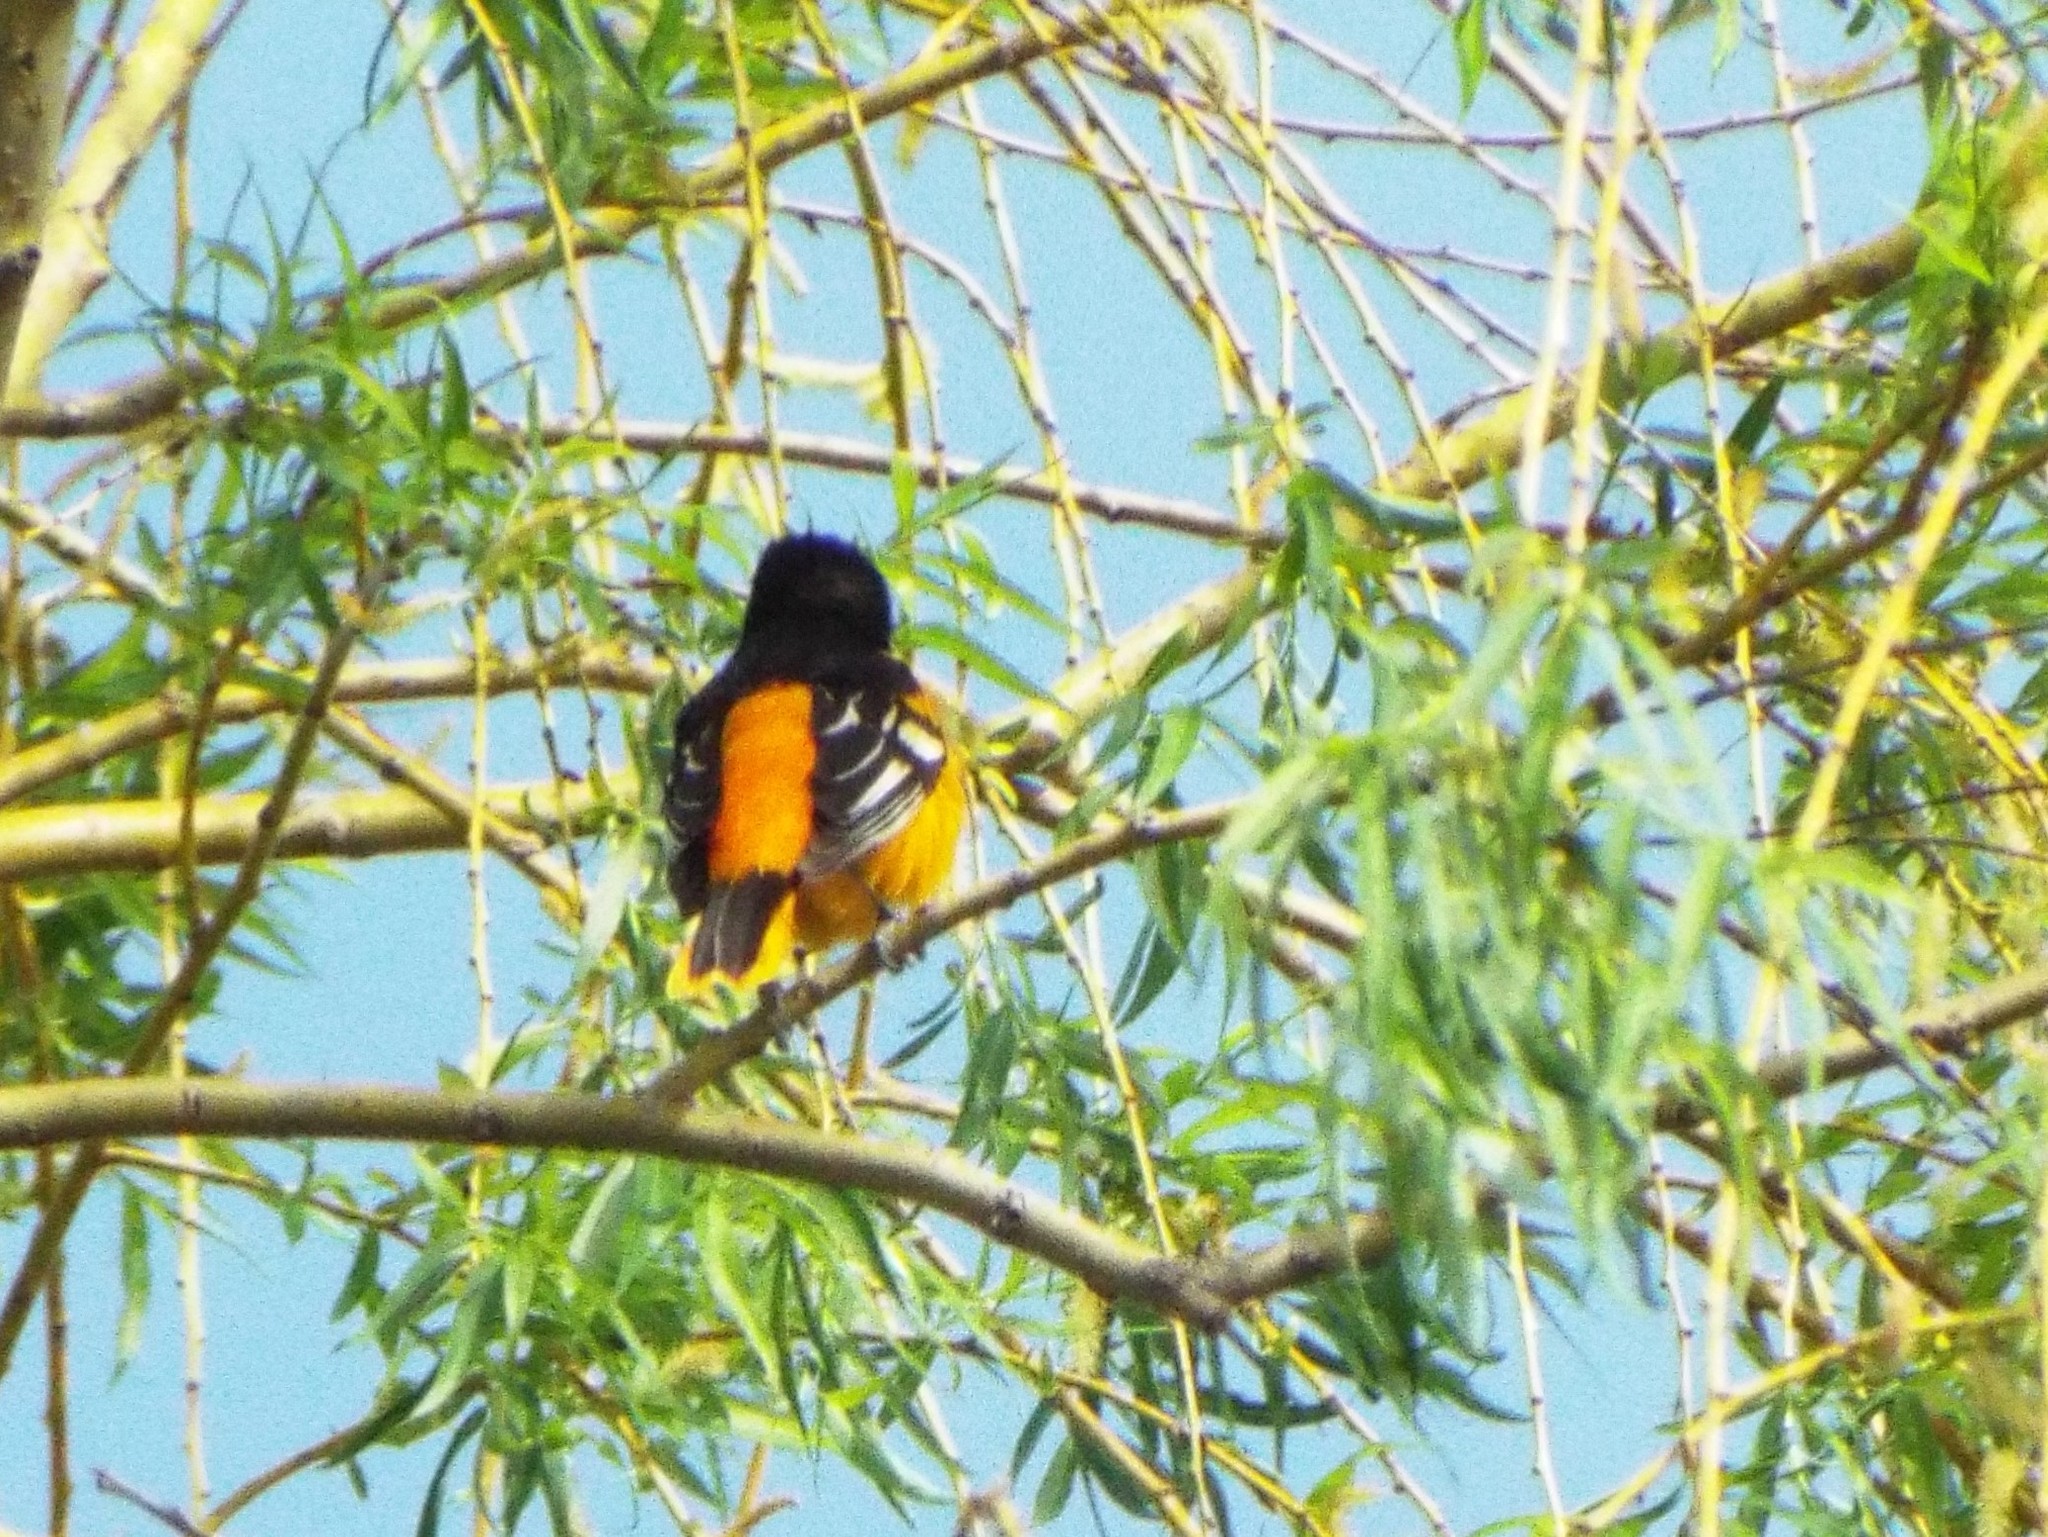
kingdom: Animalia
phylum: Chordata
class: Aves
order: Passeriformes
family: Icteridae
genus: Icterus
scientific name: Icterus galbula
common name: Baltimore oriole
